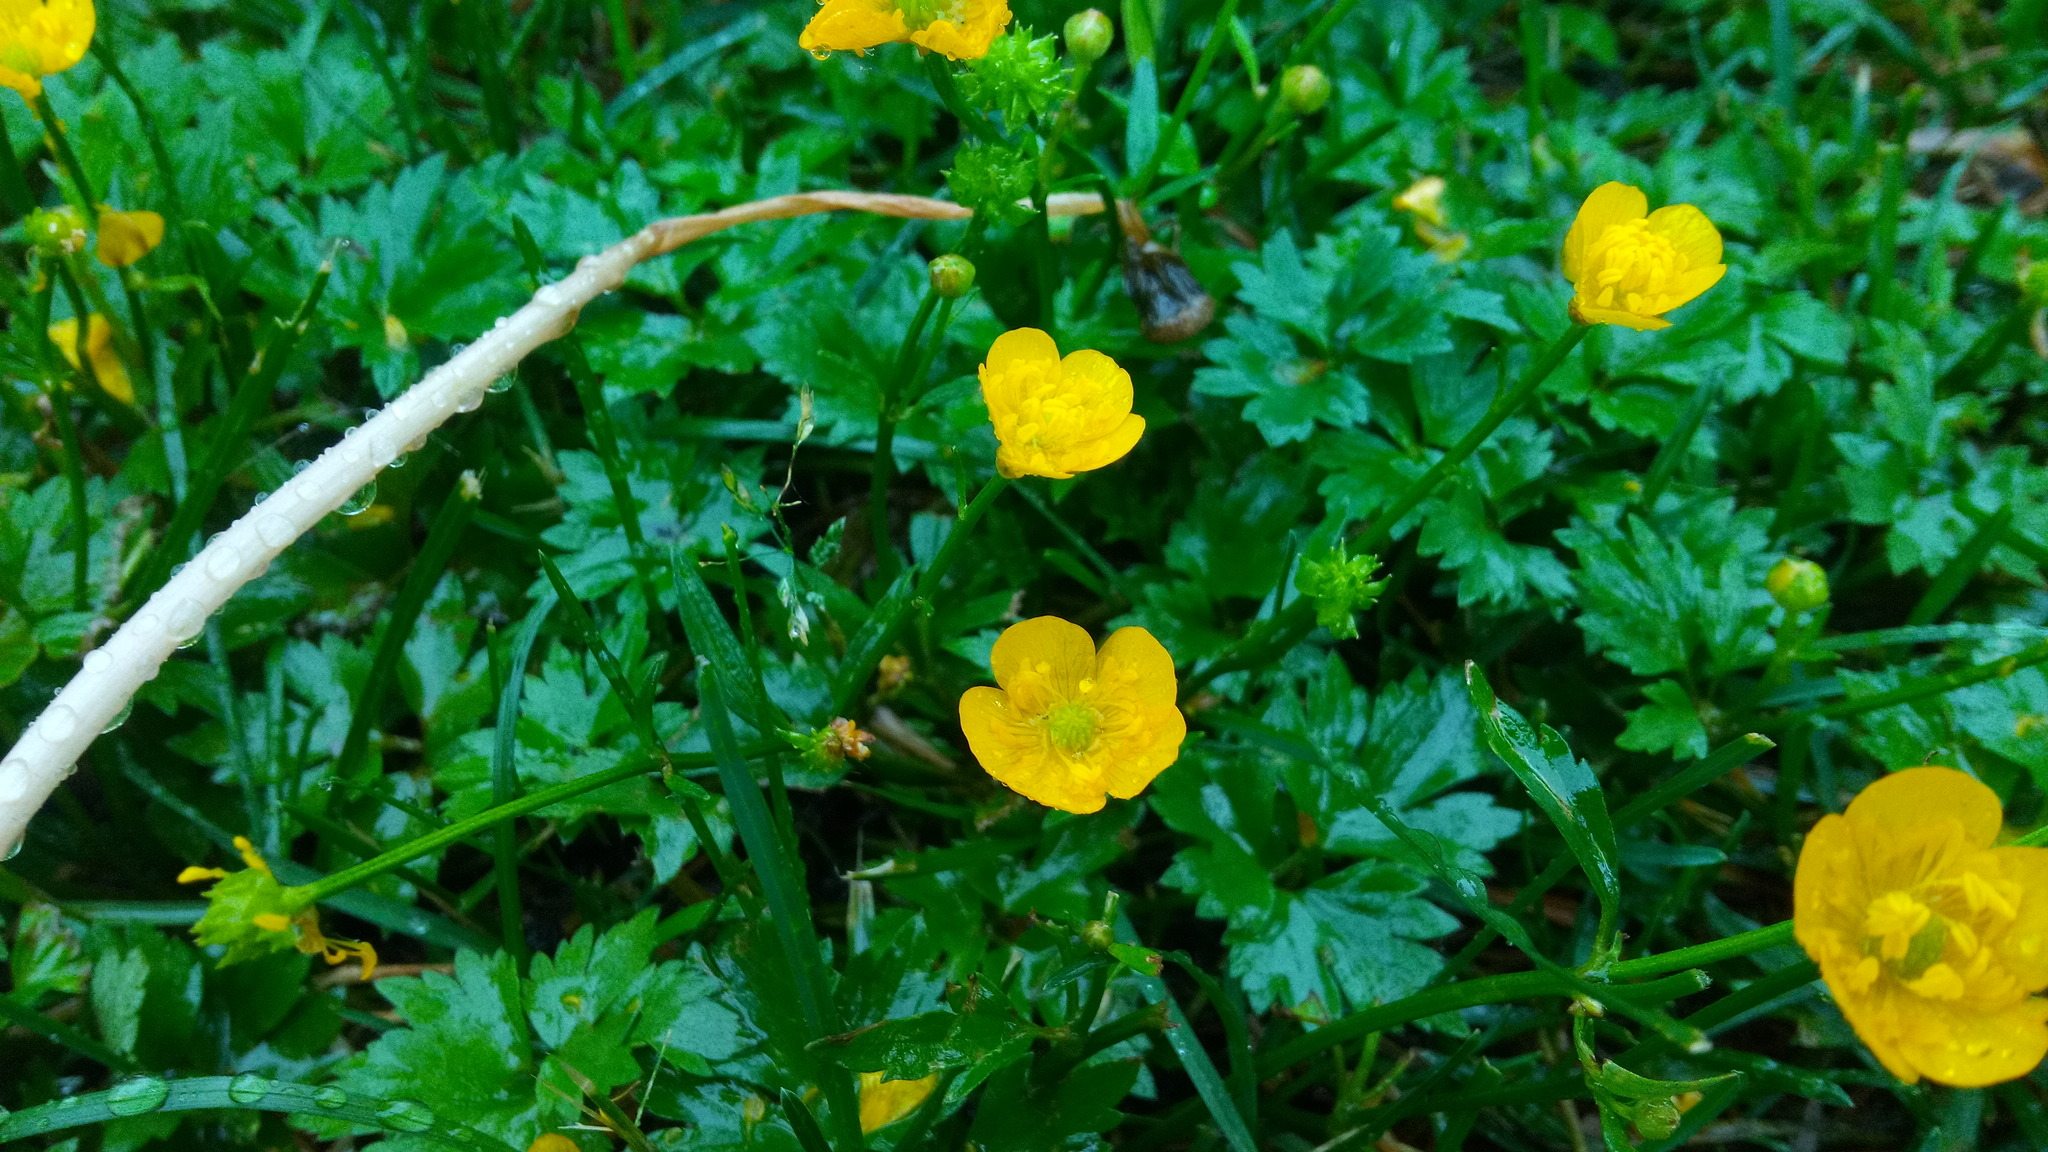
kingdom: Plantae
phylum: Tracheophyta
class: Magnoliopsida
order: Ranunculales
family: Ranunculaceae
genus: Ranunculus
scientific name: Ranunculus repens
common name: Creeping buttercup
